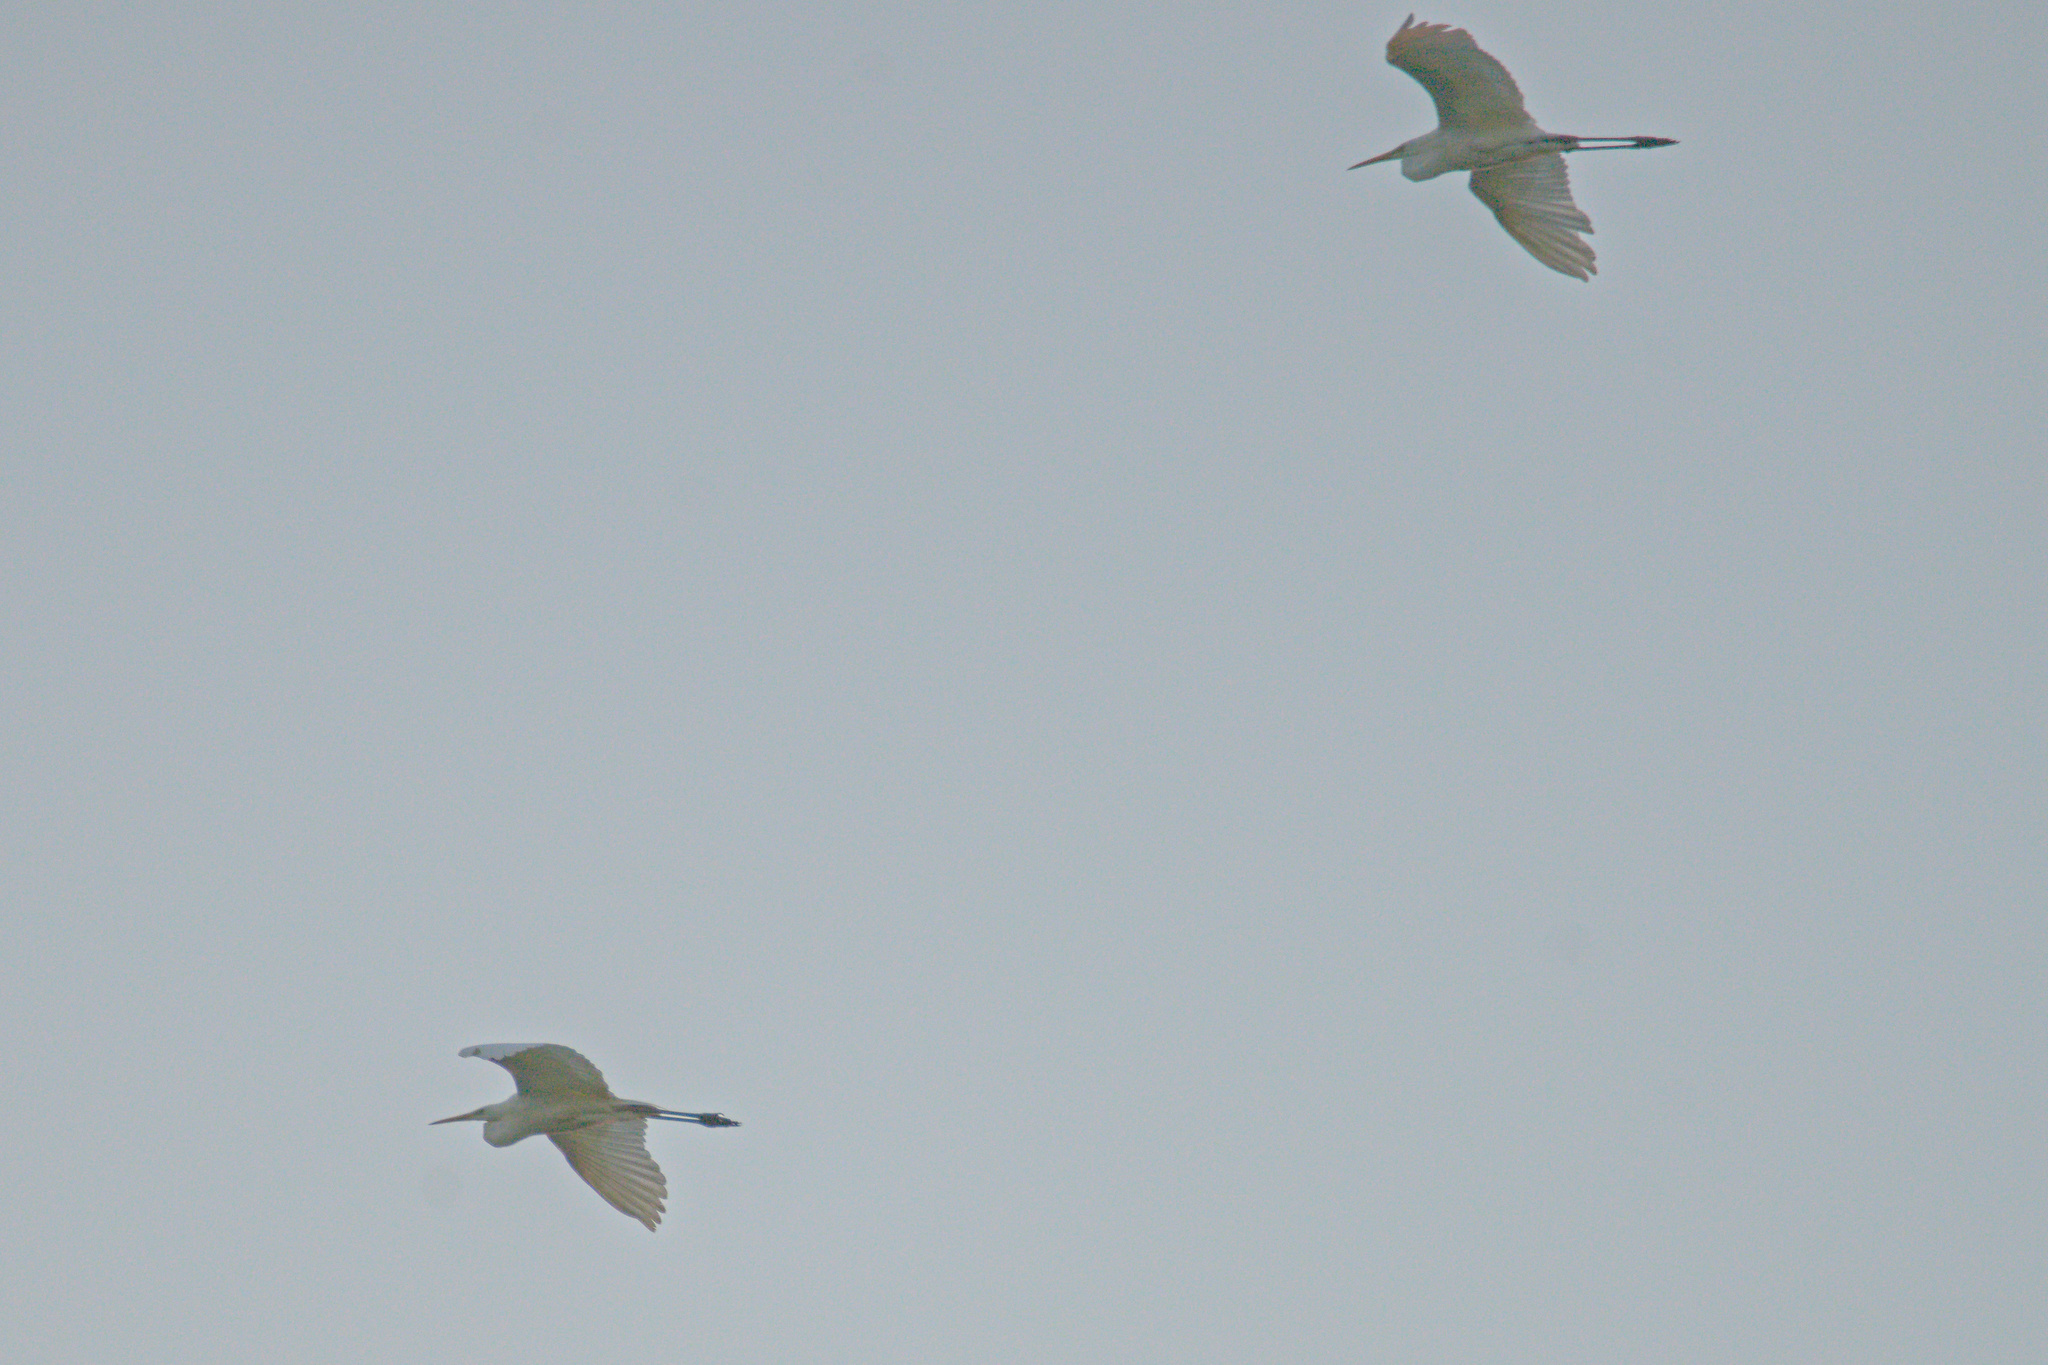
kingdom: Animalia
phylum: Chordata
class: Aves
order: Pelecaniformes
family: Ardeidae
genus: Ardea
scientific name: Ardea alba
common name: Great egret
